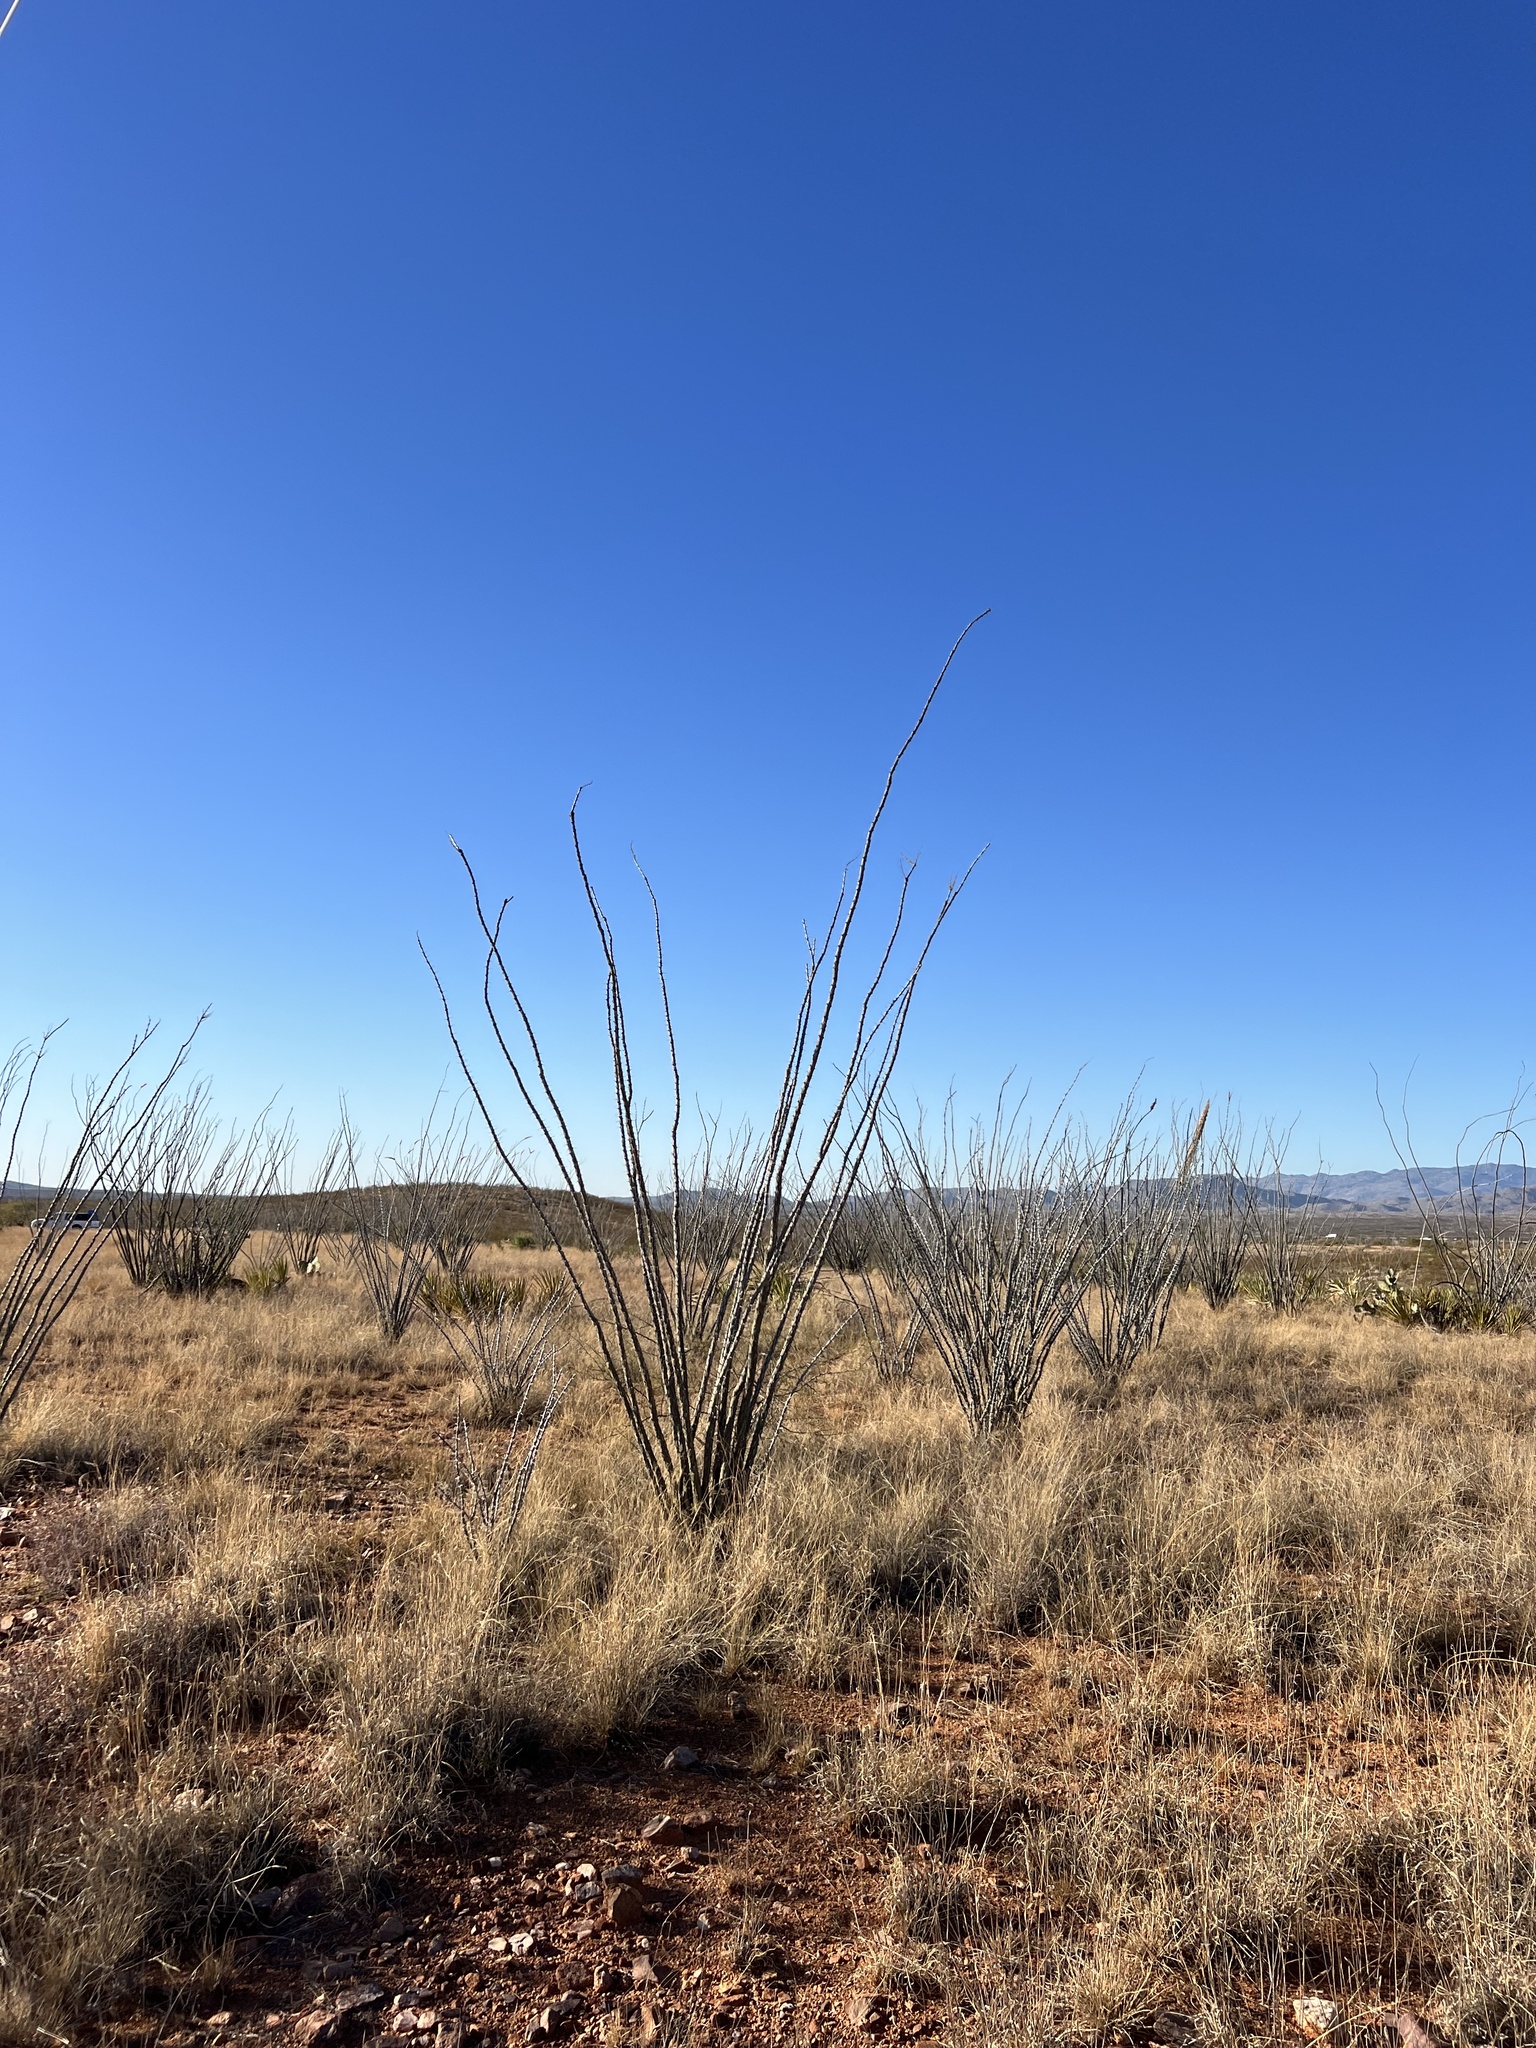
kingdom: Plantae
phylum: Tracheophyta
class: Magnoliopsida
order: Ericales
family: Fouquieriaceae
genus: Fouquieria
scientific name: Fouquieria splendens
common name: Vine-cactus
